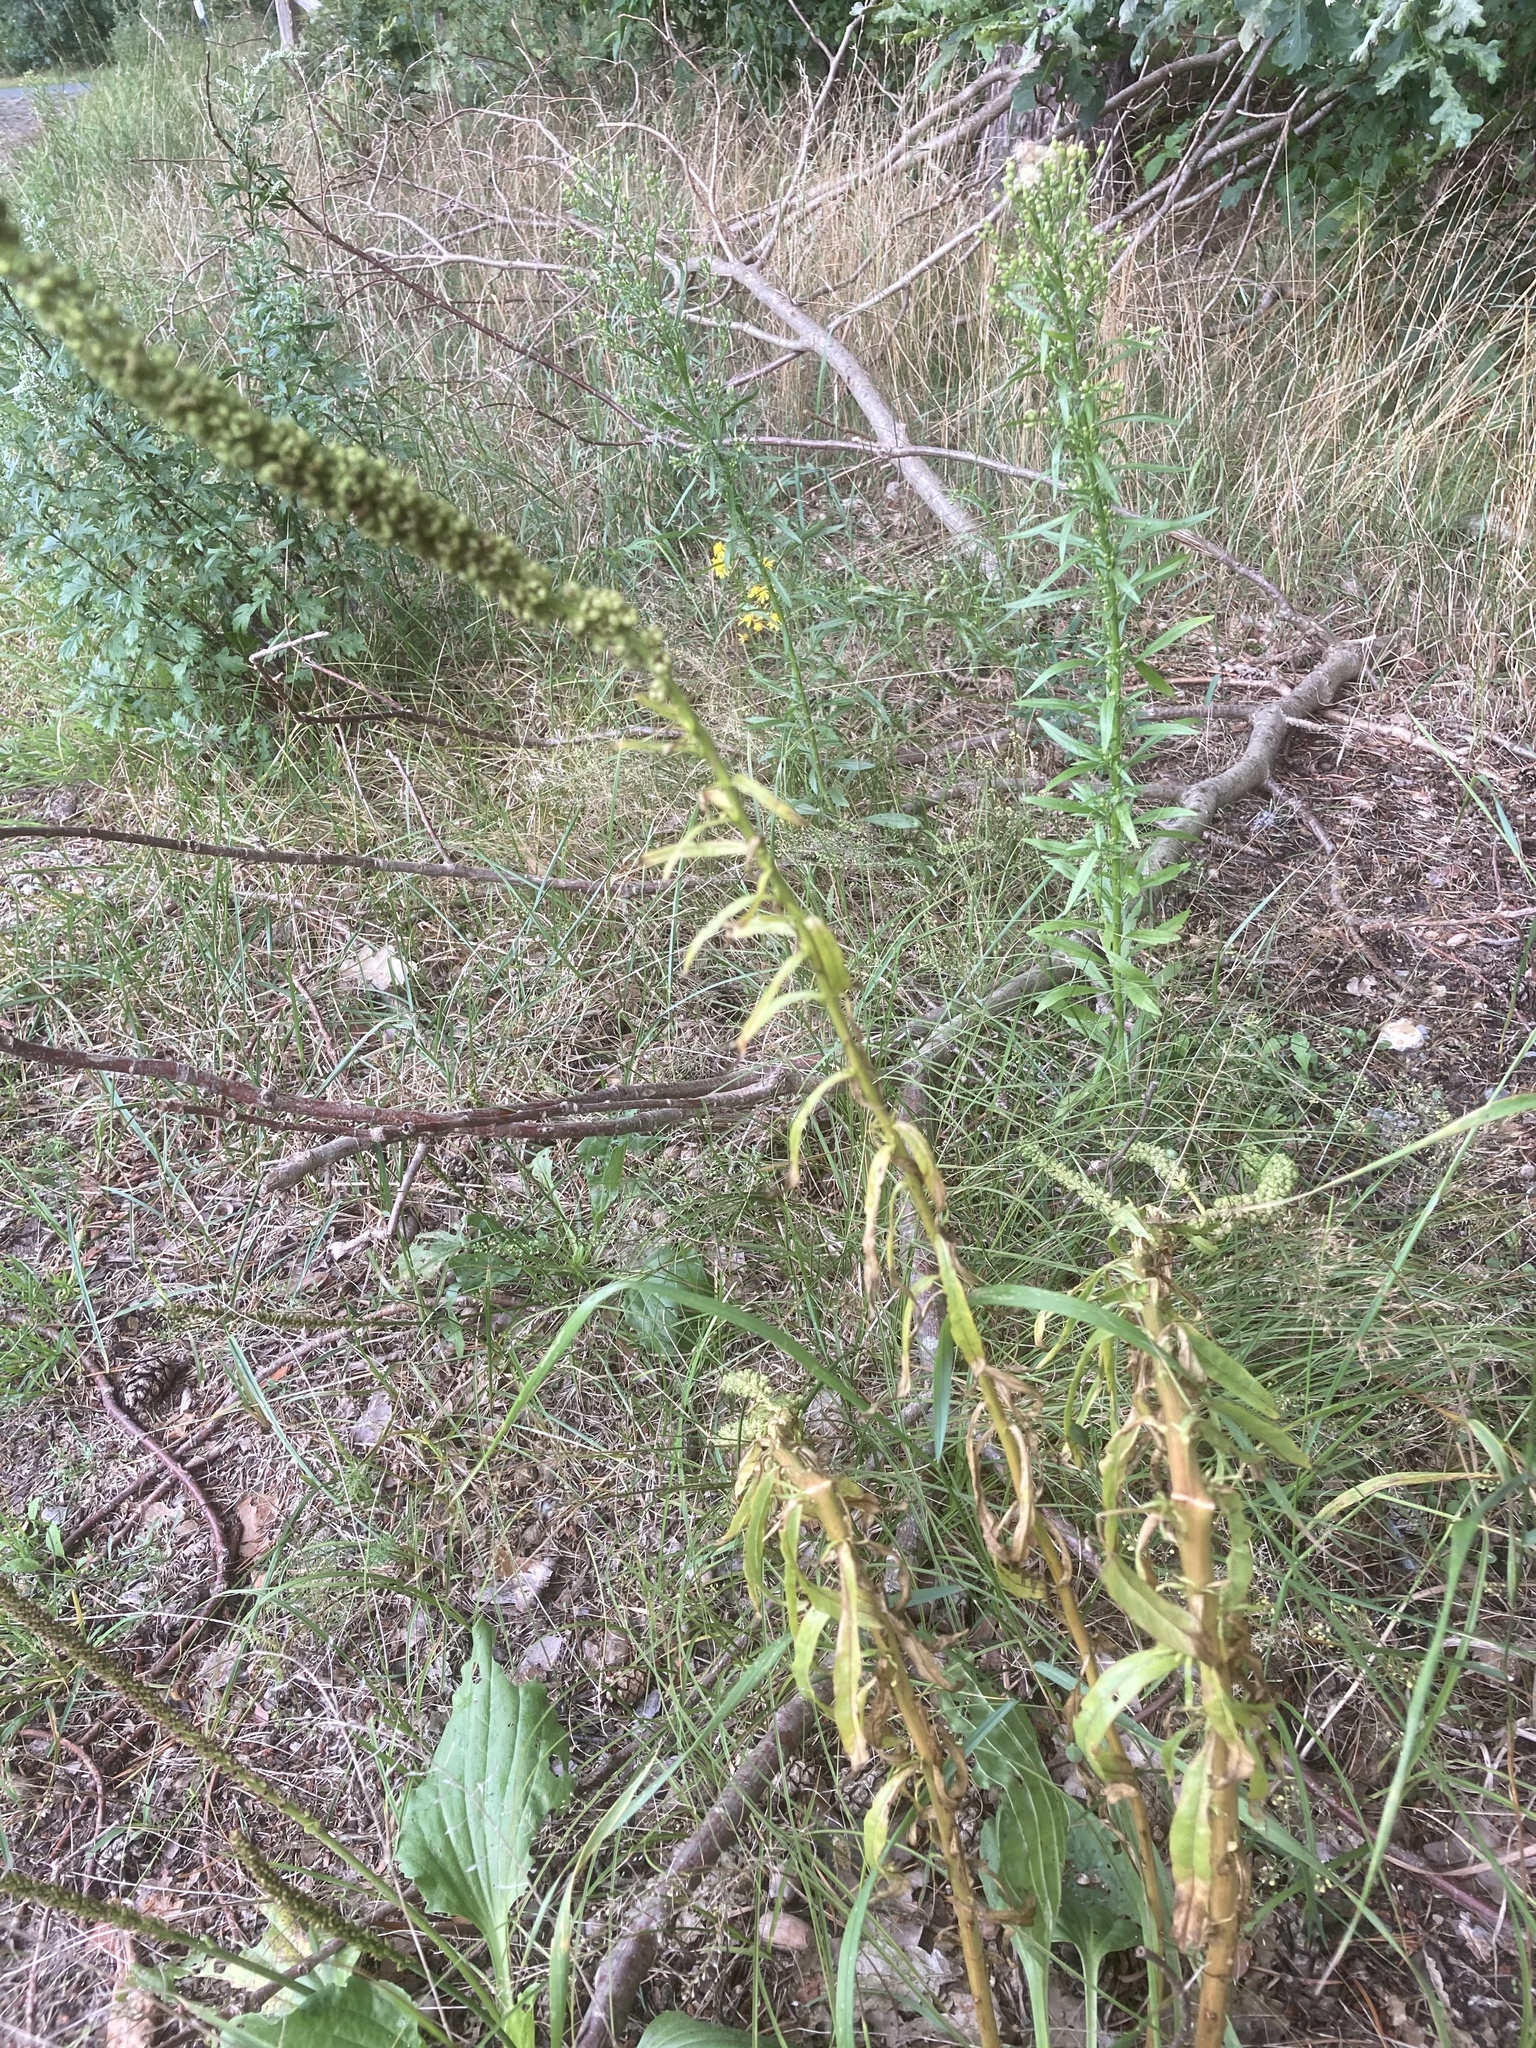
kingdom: Plantae
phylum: Tracheophyta
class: Magnoliopsida
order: Brassicales
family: Resedaceae
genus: Reseda
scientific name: Reseda luteola
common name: Weld
